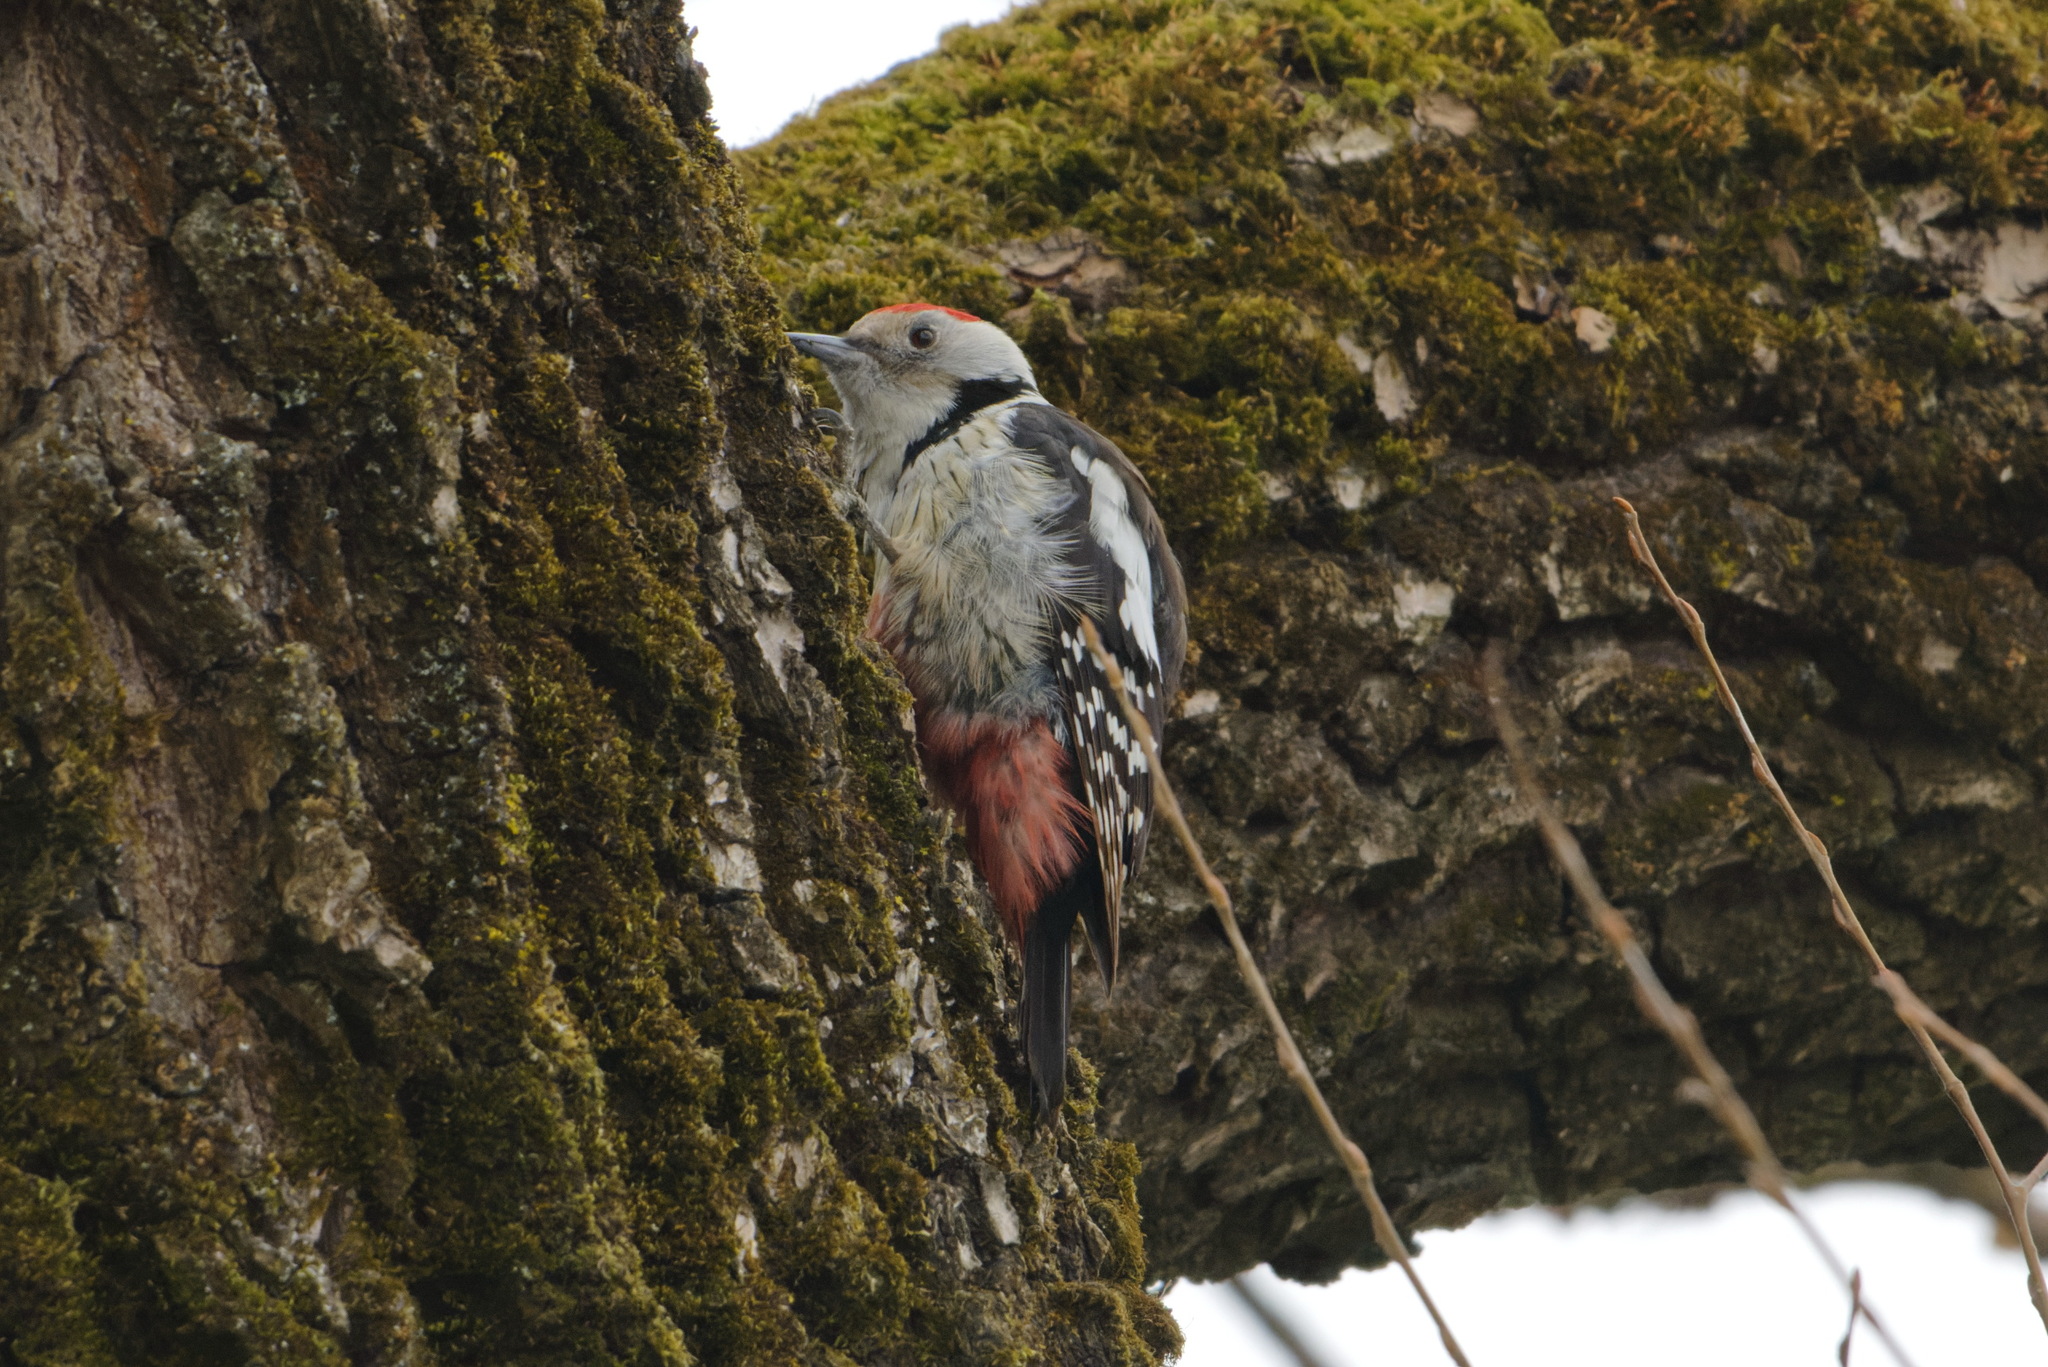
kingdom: Animalia
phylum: Chordata
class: Aves
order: Piciformes
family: Picidae
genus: Dendrocoptes
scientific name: Dendrocoptes medius
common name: Middle spotted woodpecker
